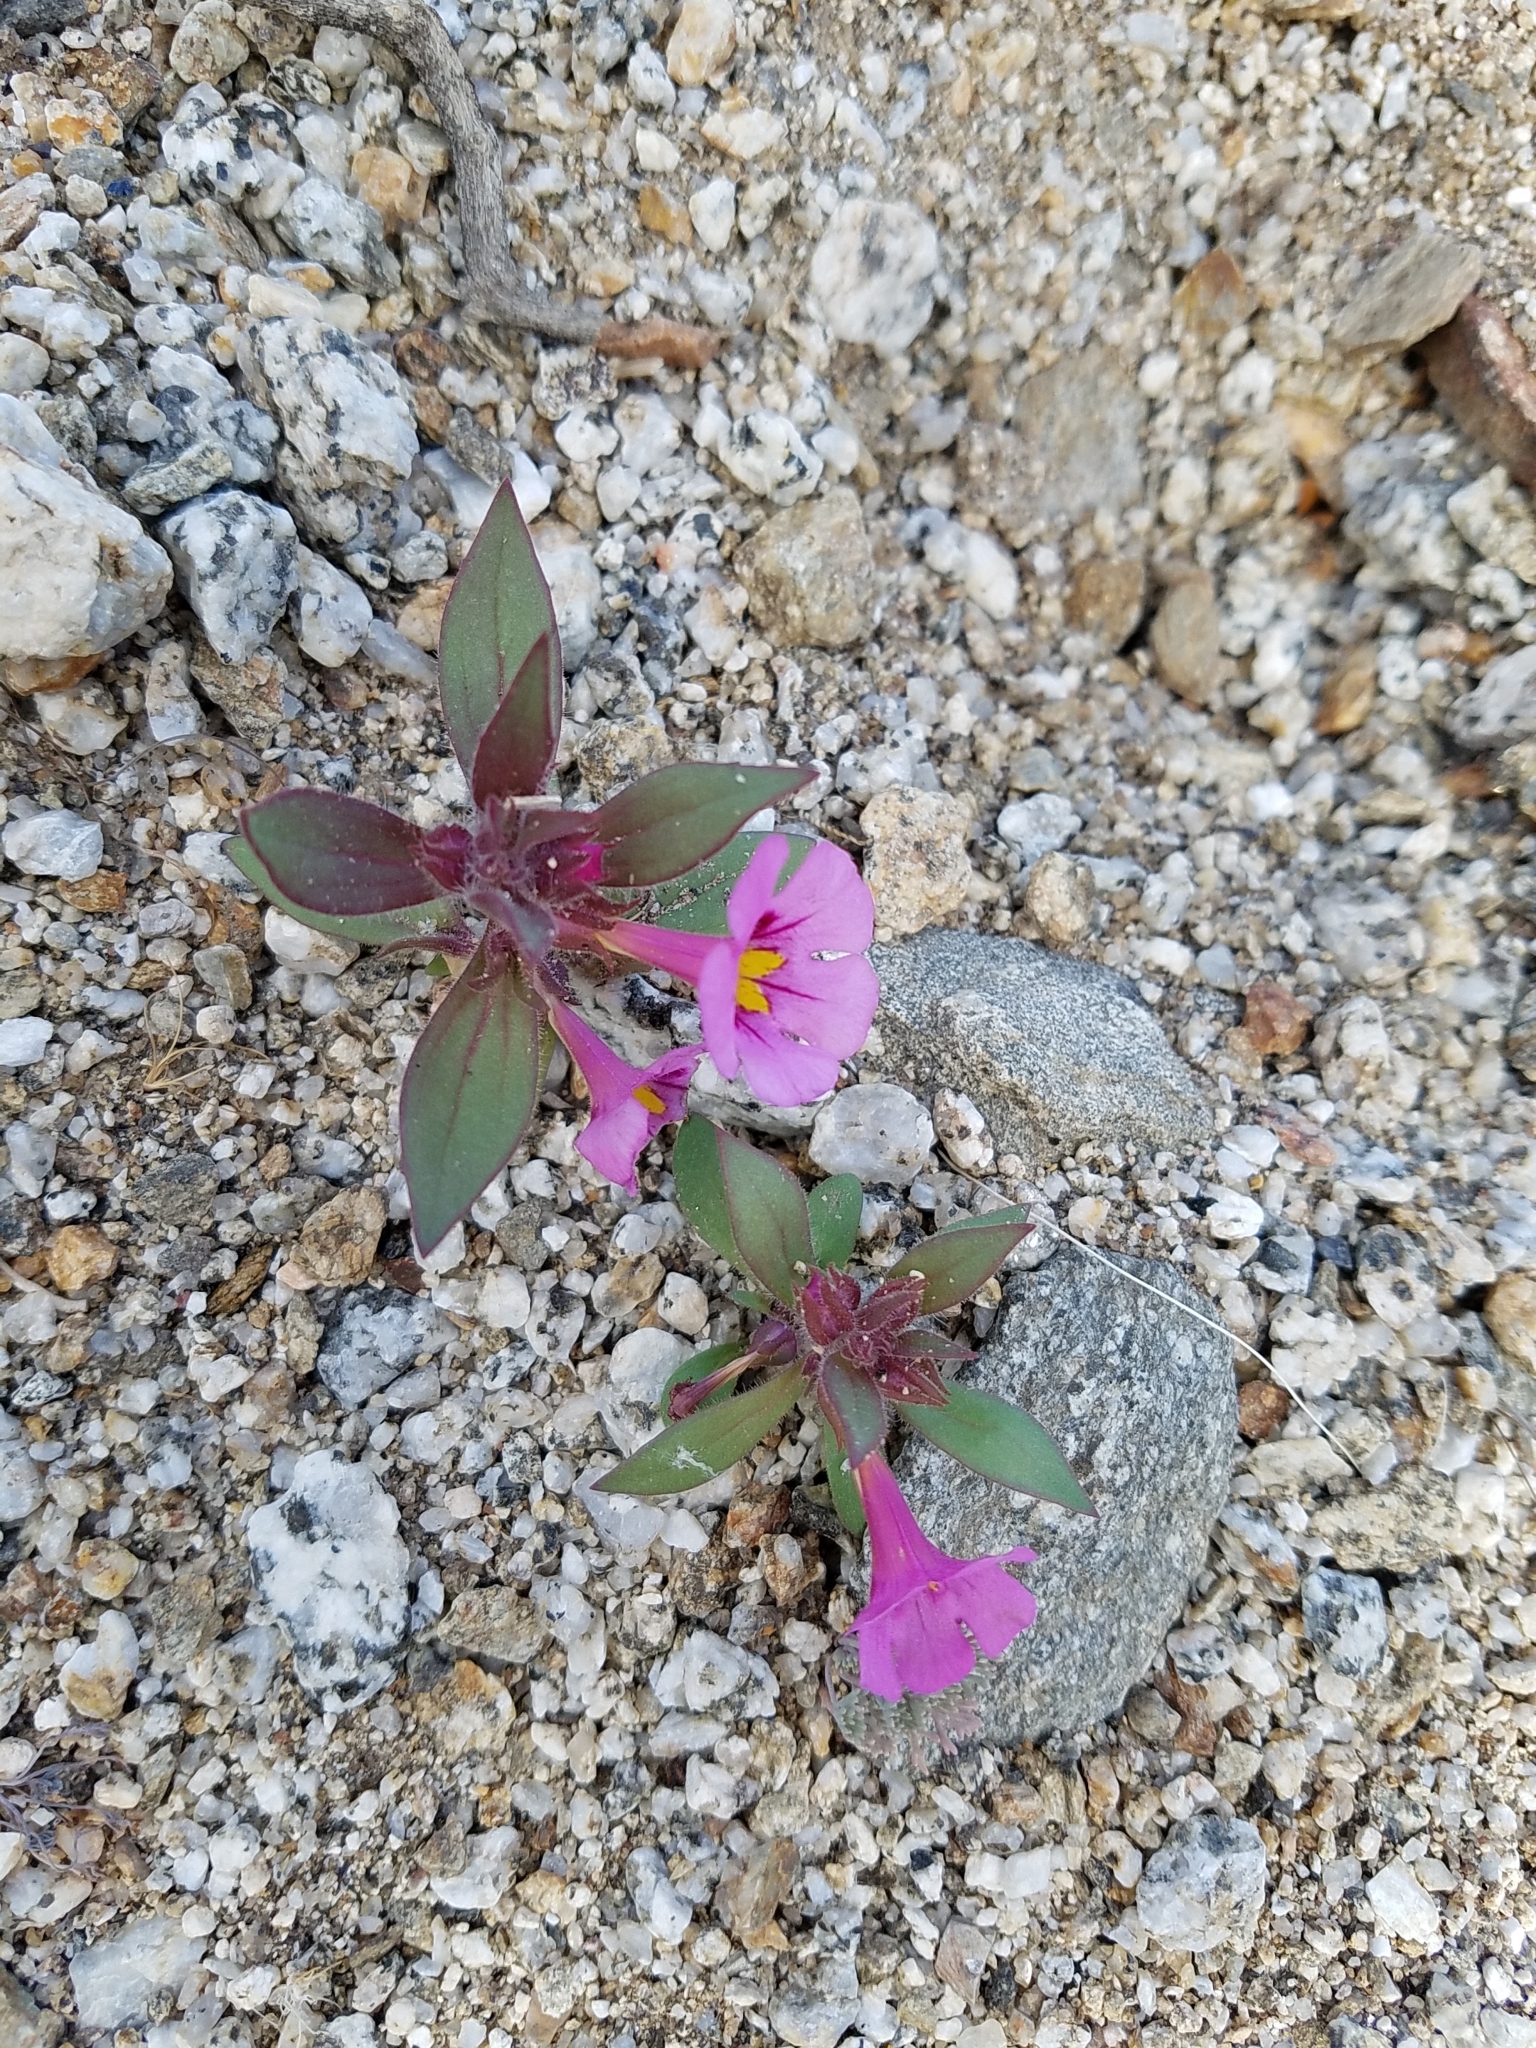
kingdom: Plantae
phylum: Tracheophyta
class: Magnoliopsida
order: Lamiales
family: Phrymaceae
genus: Diplacus
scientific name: Diplacus bigelovii
